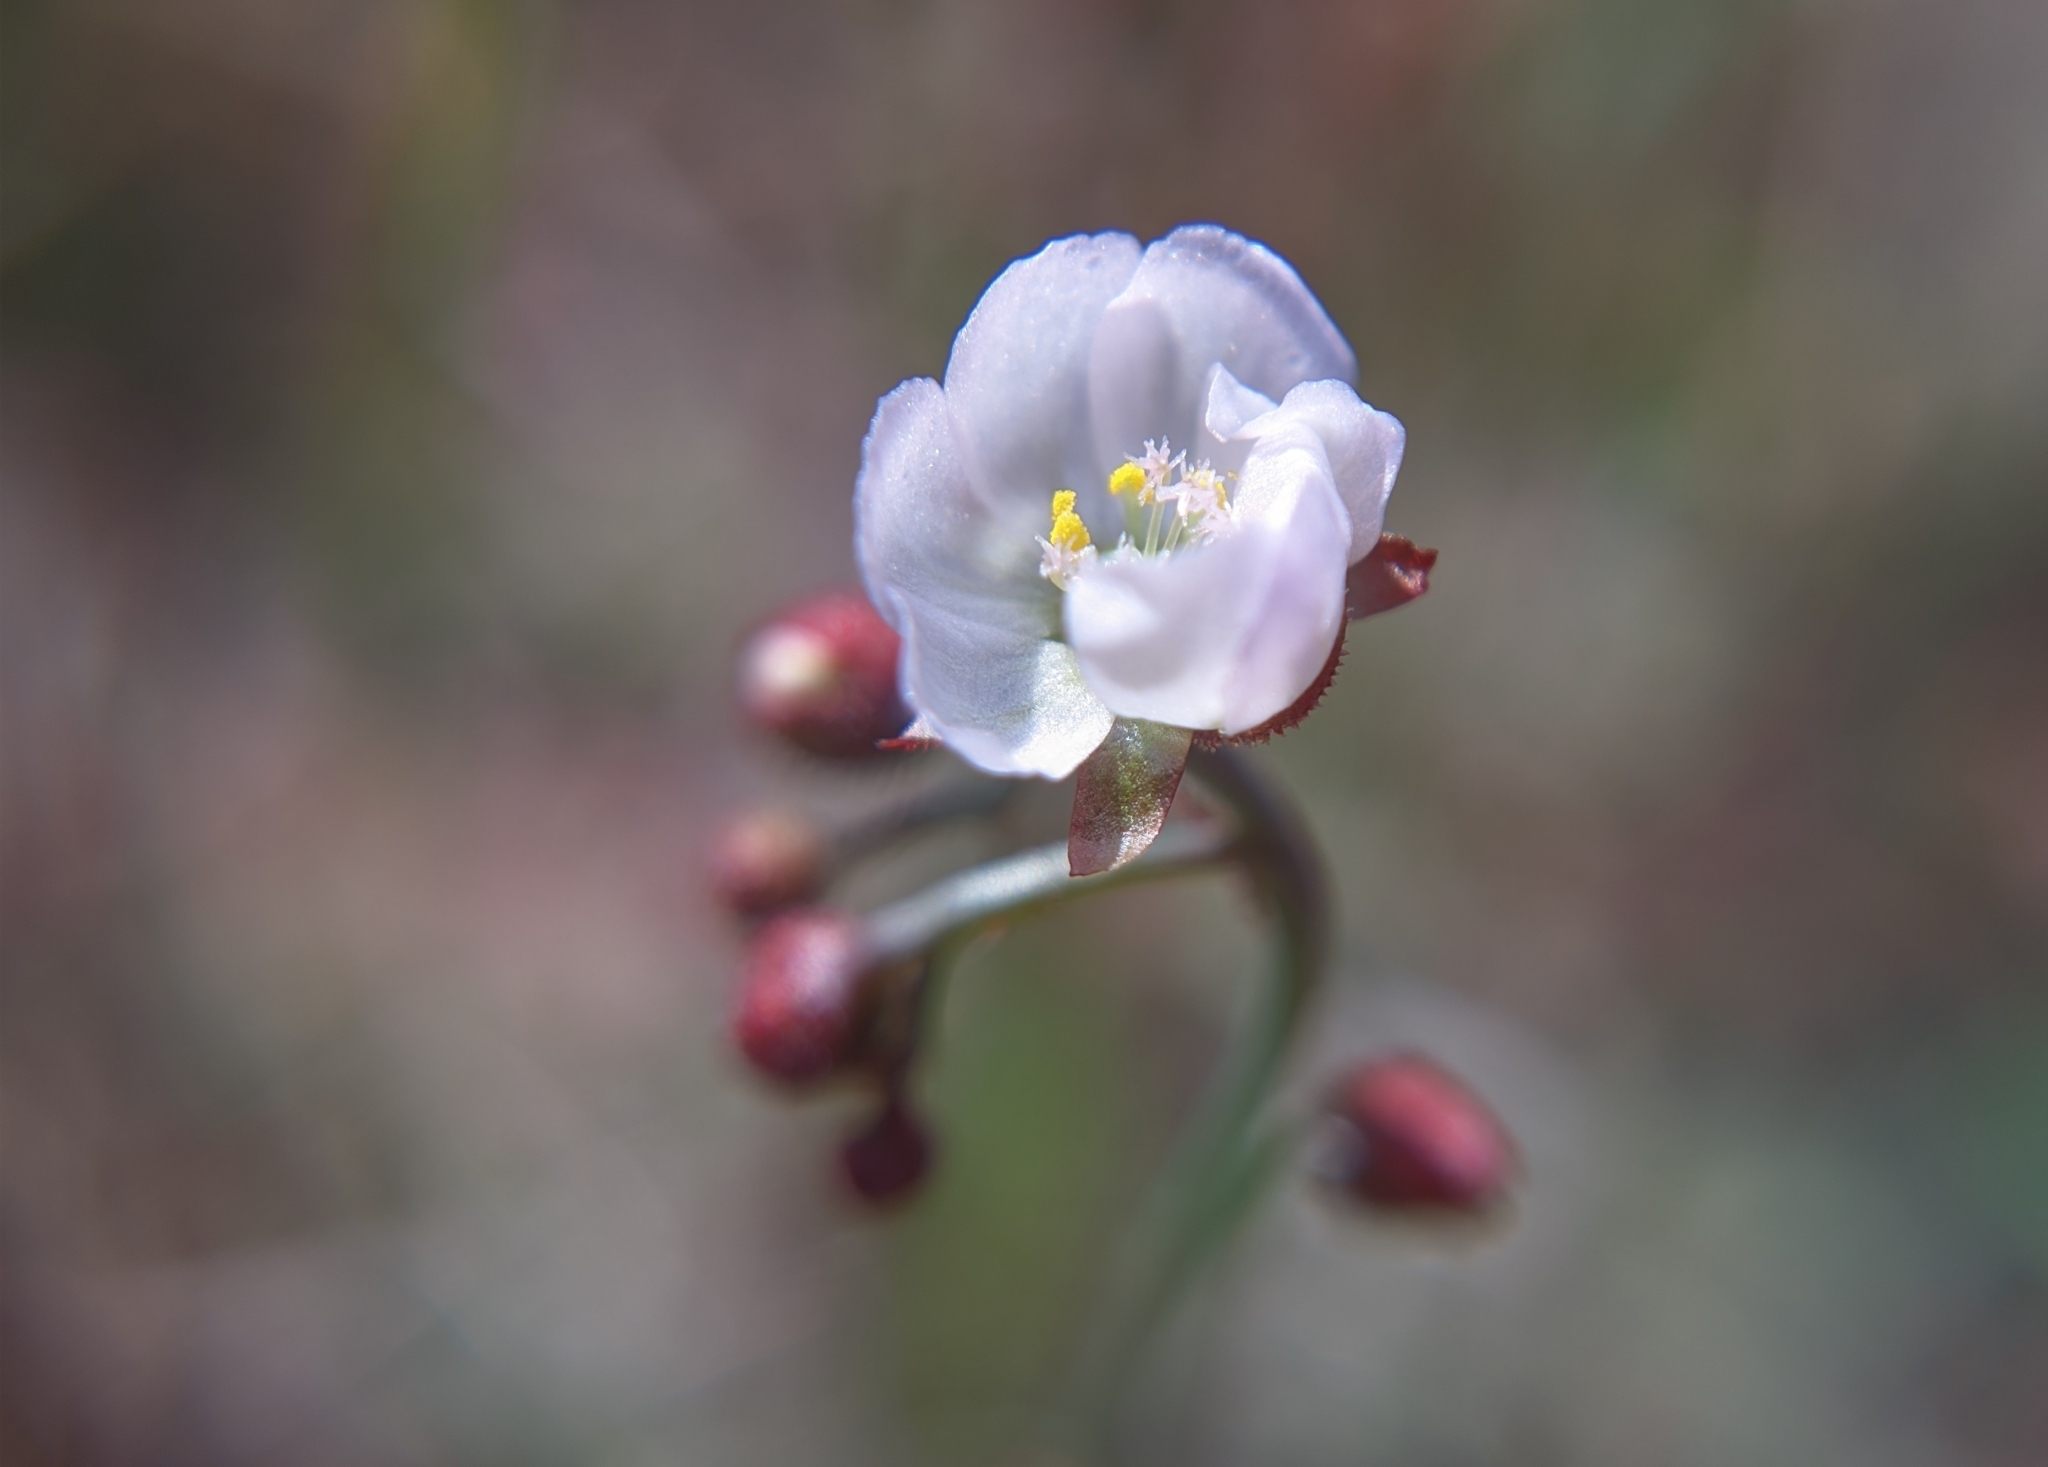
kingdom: Plantae
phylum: Tracheophyta
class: Magnoliopsida
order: Caryophyllales
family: Droseraceae
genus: Drosera
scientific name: Drosera spatulata
